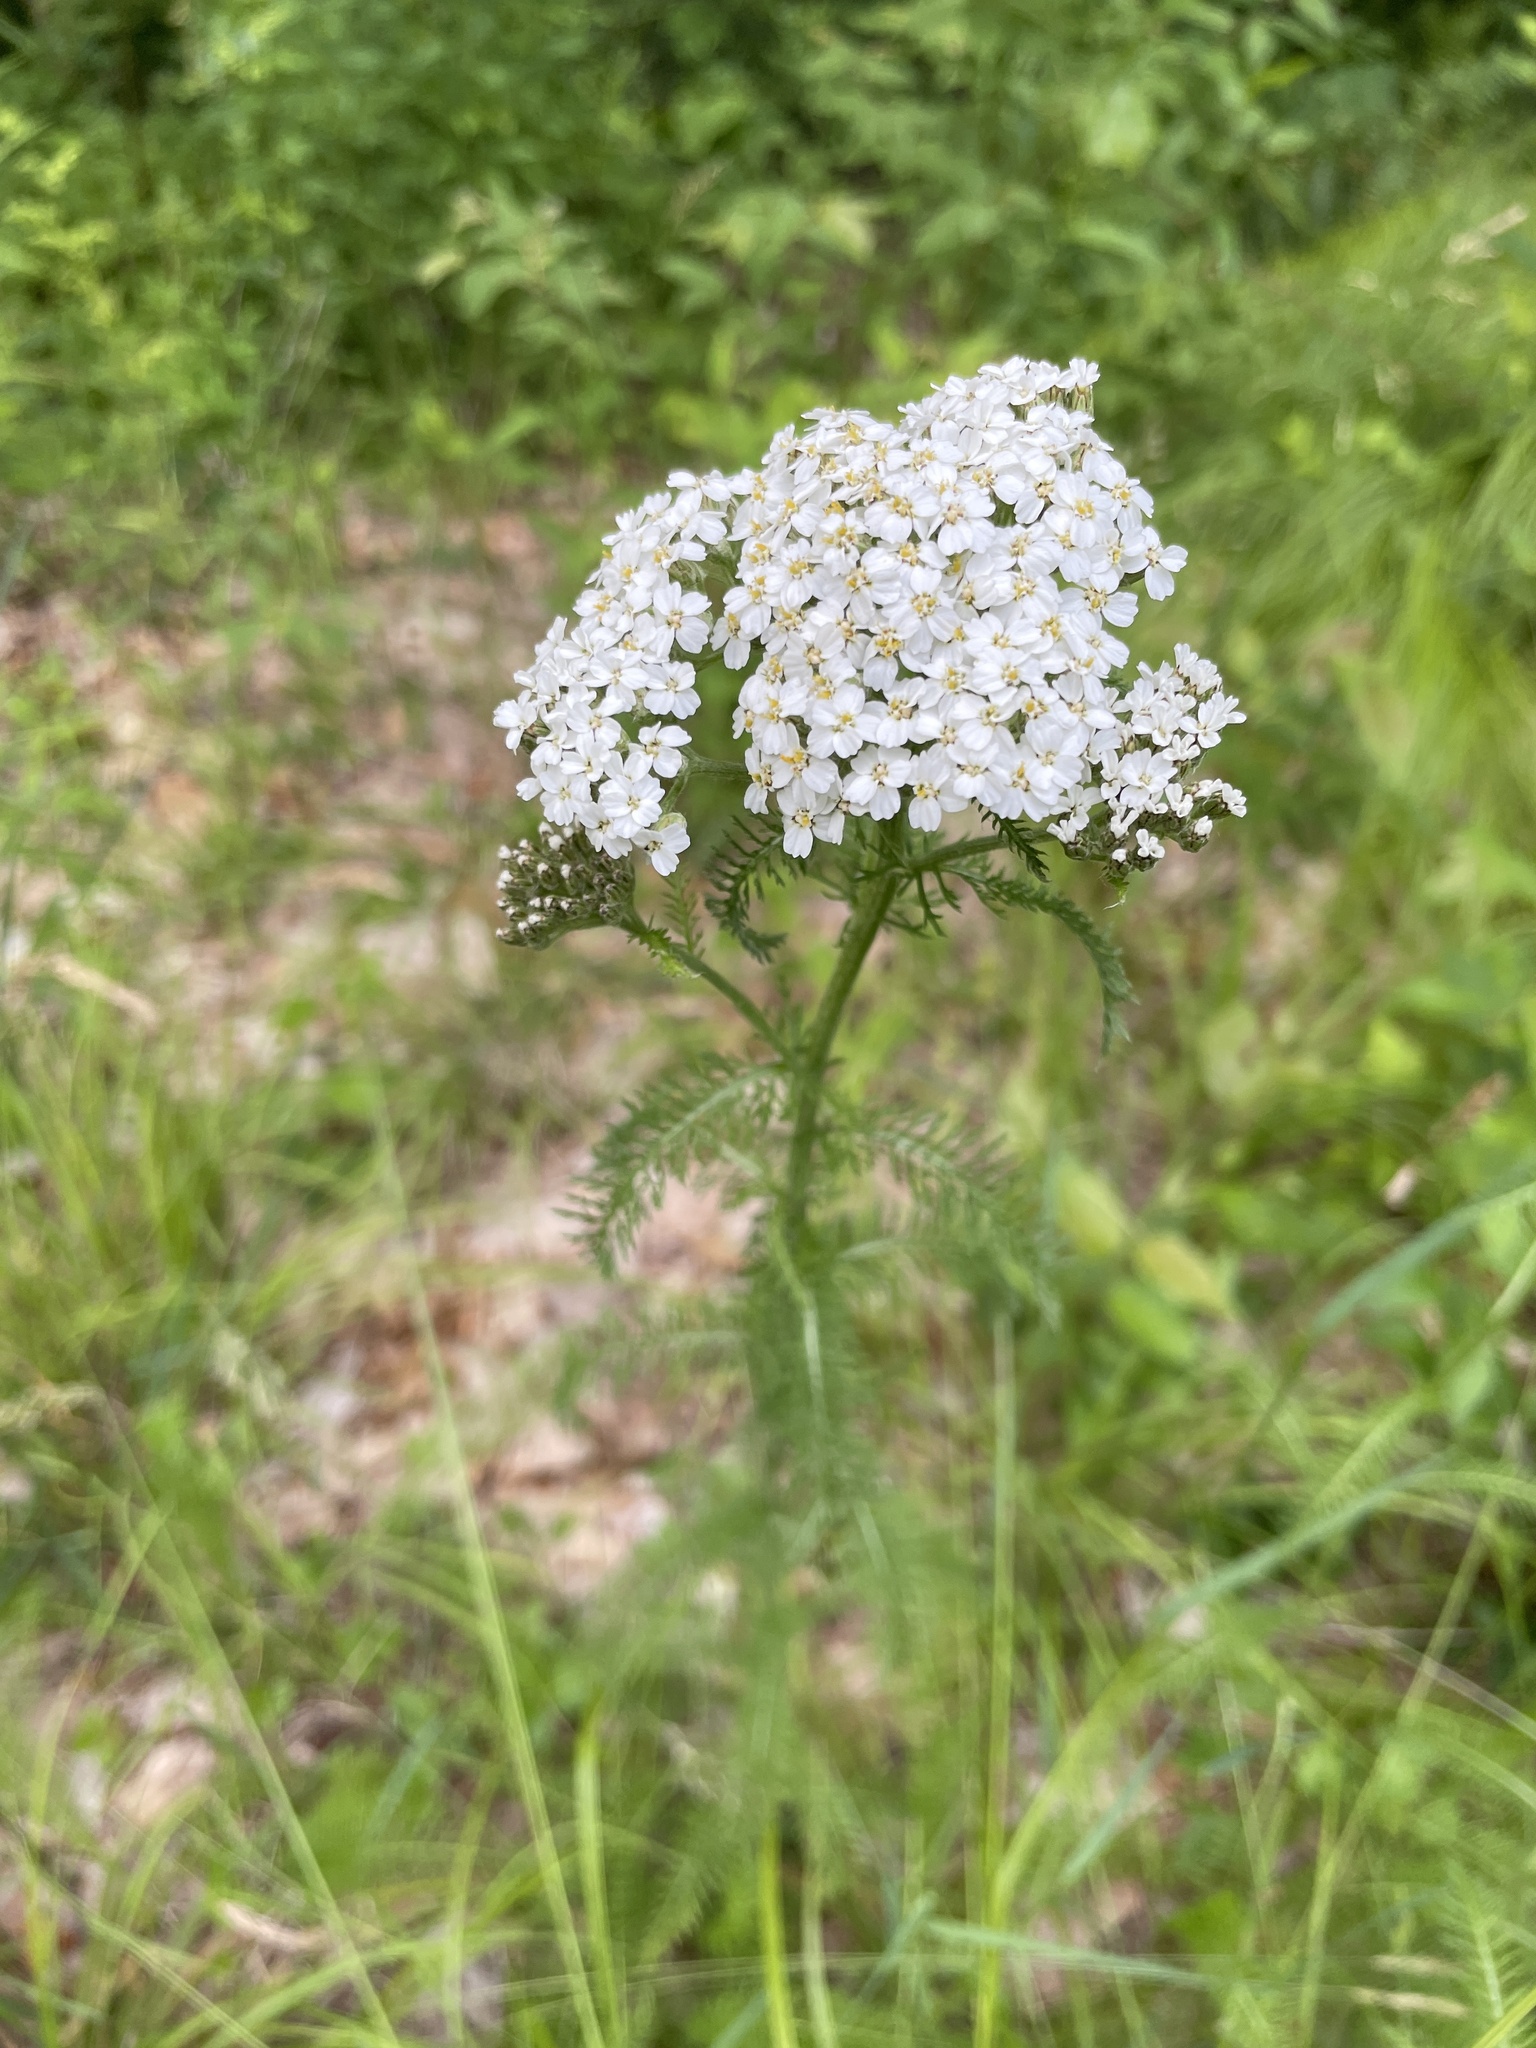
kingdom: Plantae
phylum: Tracheophyta
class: Magnoliopsida
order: Asterales
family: Asteraceae
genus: Achillea
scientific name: Achillea millefolium
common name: Yarrow
